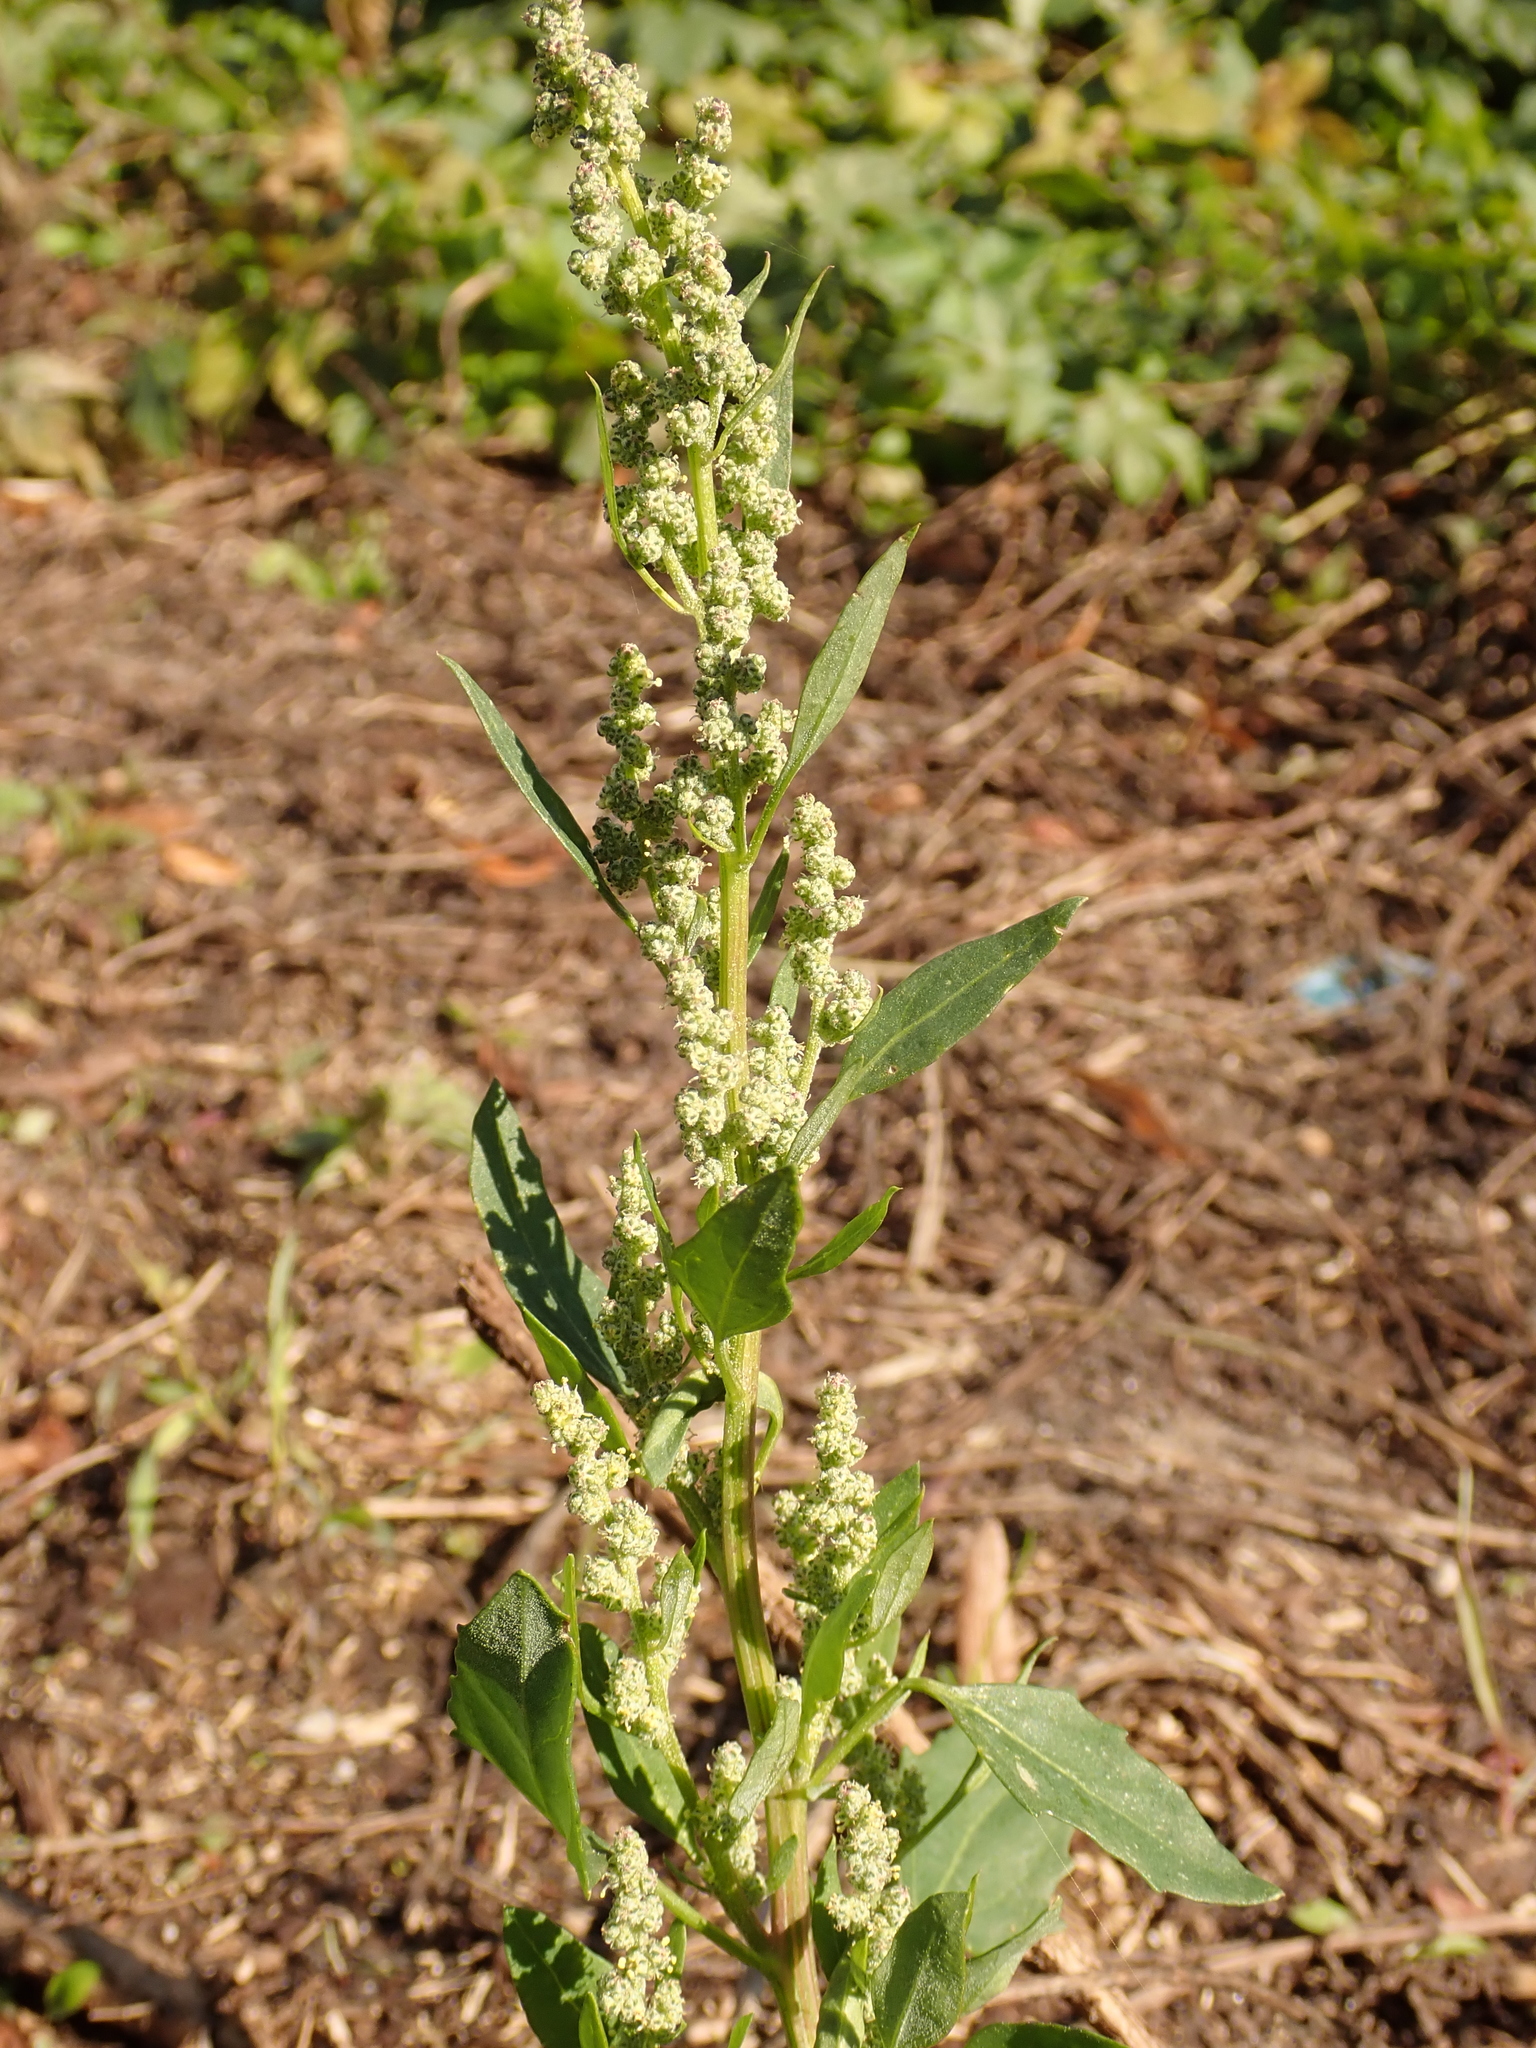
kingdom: Plantae
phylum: Tracheophyta
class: Magnoliopsida
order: Caryophyllales
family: Amaranthaceae
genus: Chenopodium
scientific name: Chenopodium album
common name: Fat-hen
